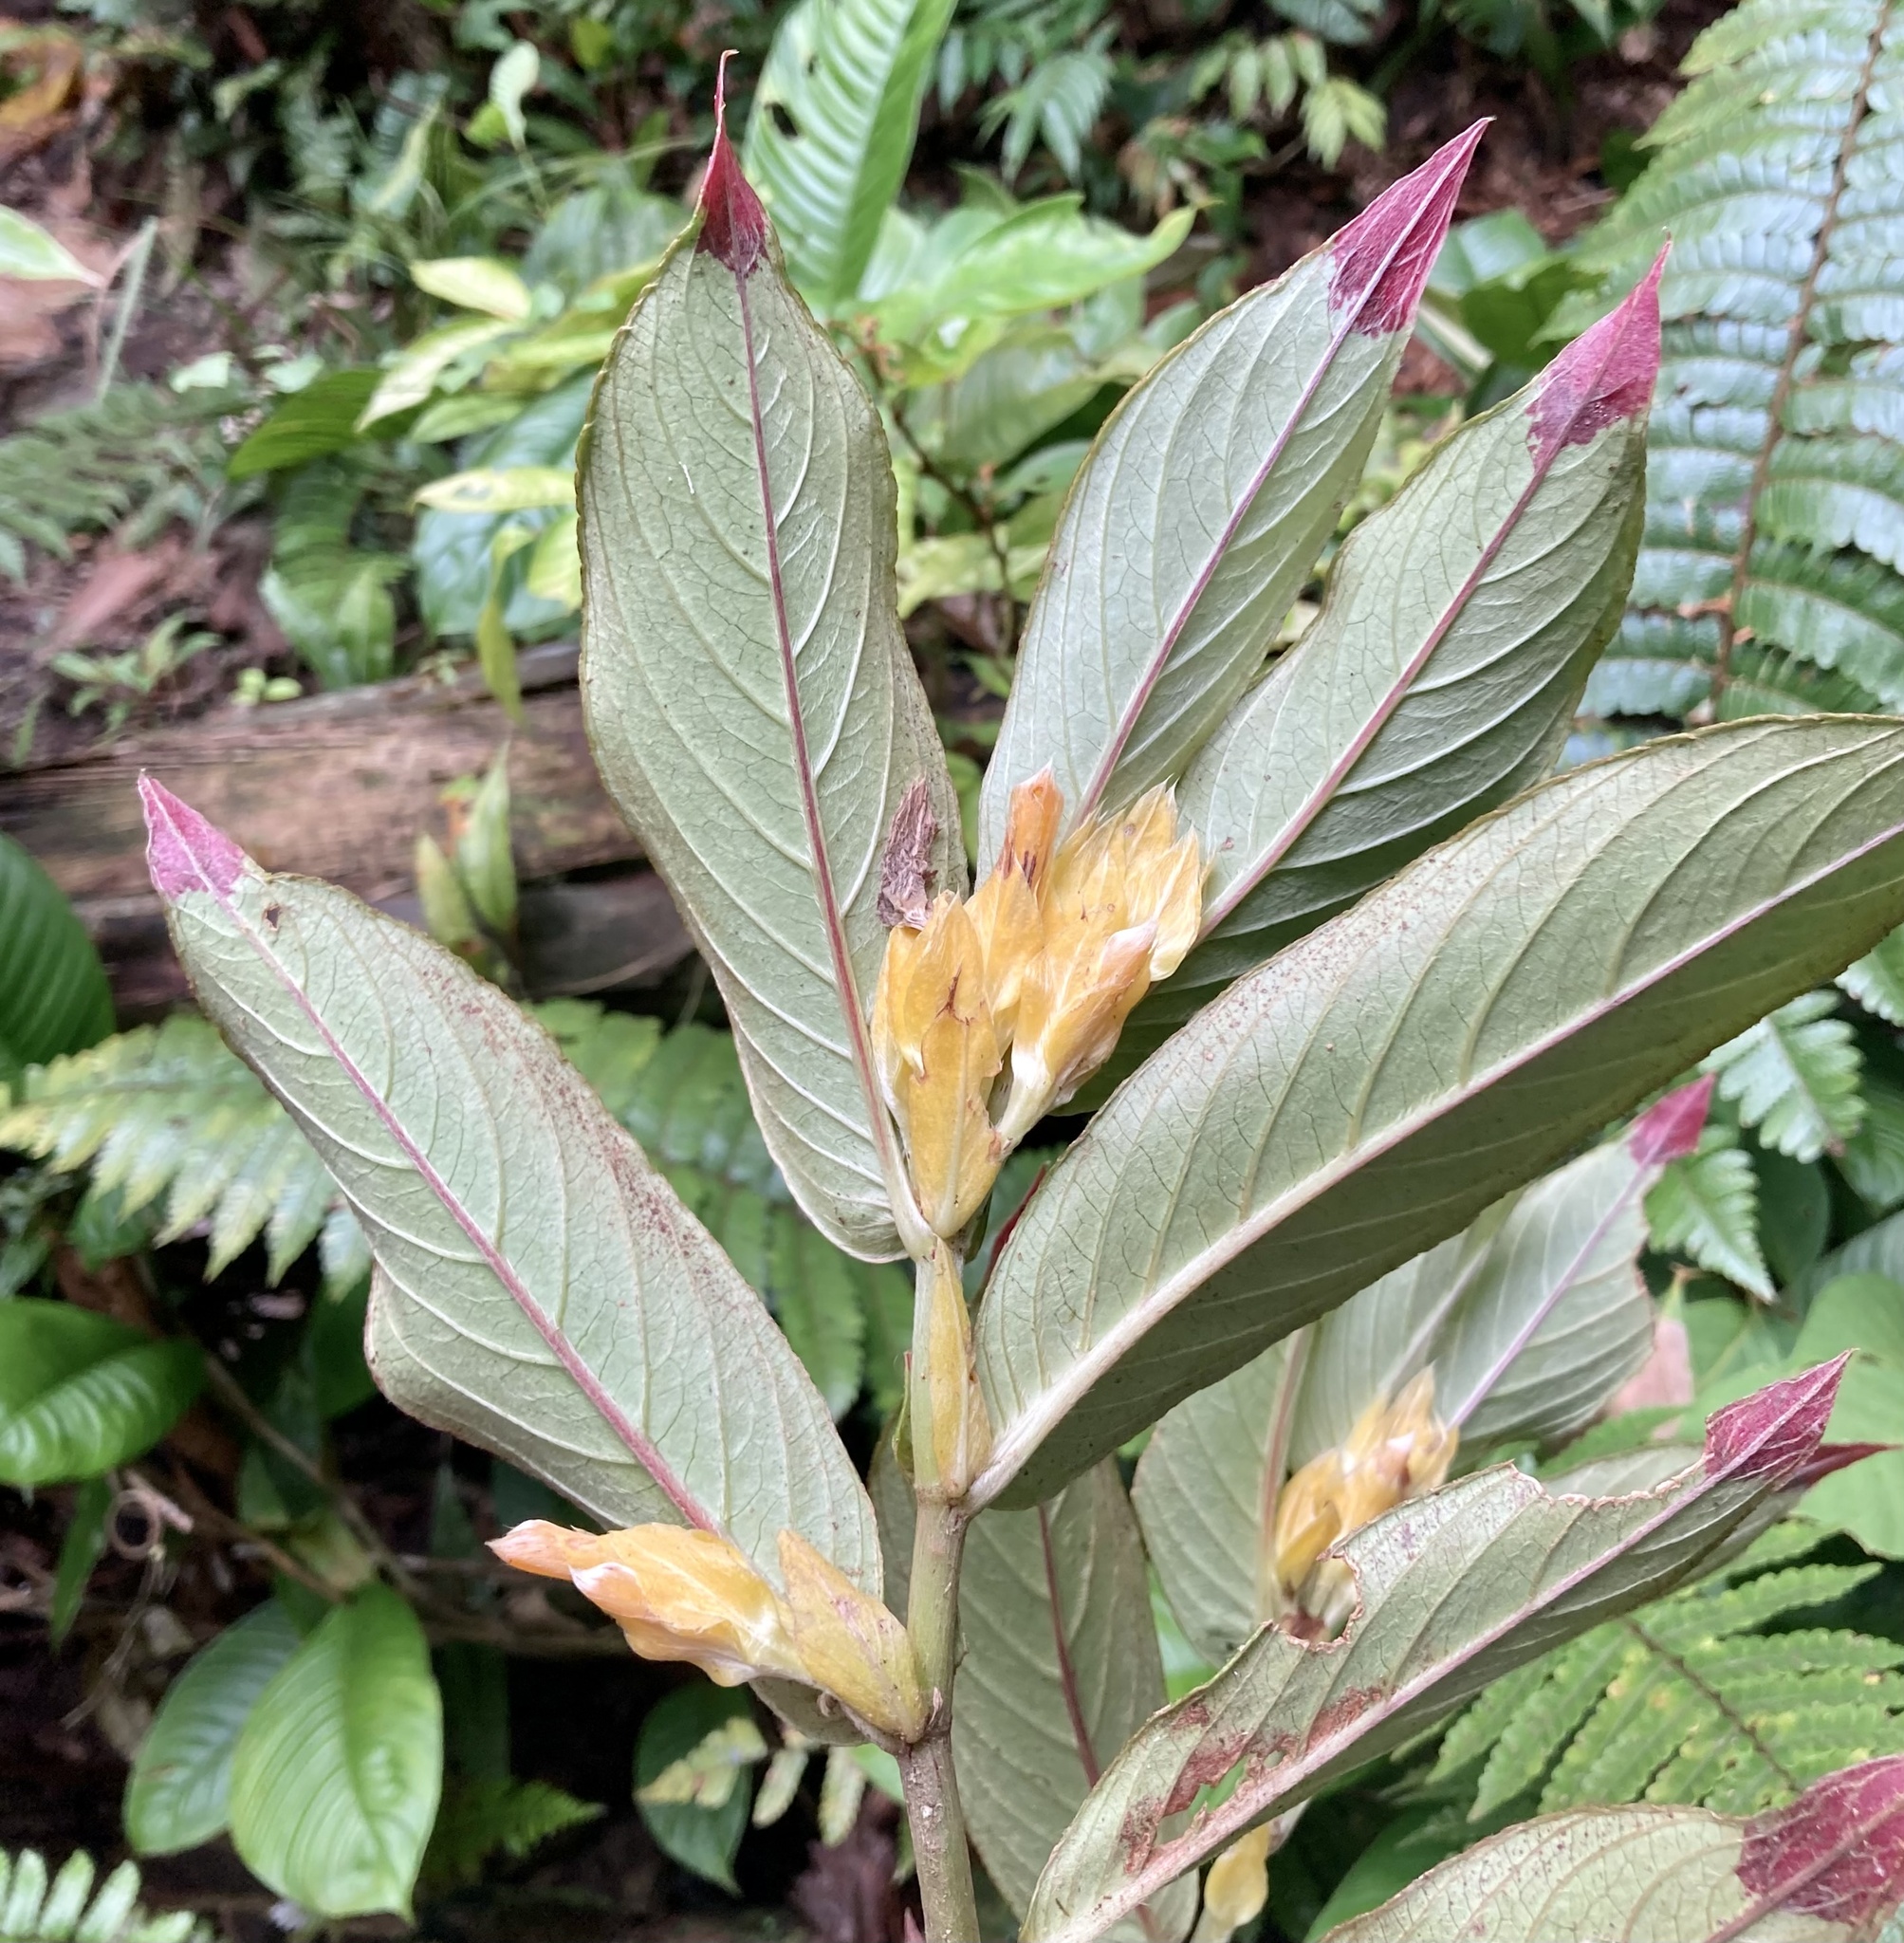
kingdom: Plantae
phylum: Tracheophyta
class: Magnoliopsida
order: Lamiales
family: Gesneriaceae
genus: Columnea
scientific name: Columnea picta
